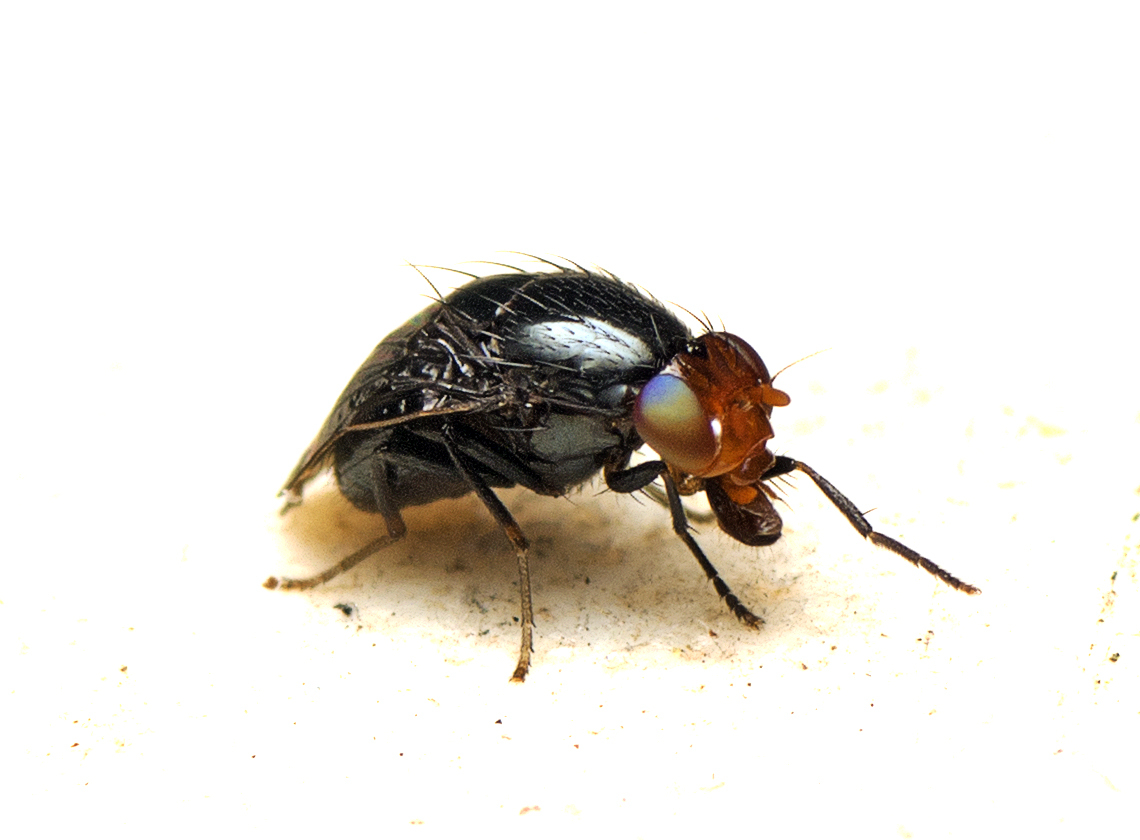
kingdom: Animalia
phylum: Arthropoda
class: Insecta
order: Diptera
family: Lauxaniidae
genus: Depressa
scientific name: Depressa atrata
